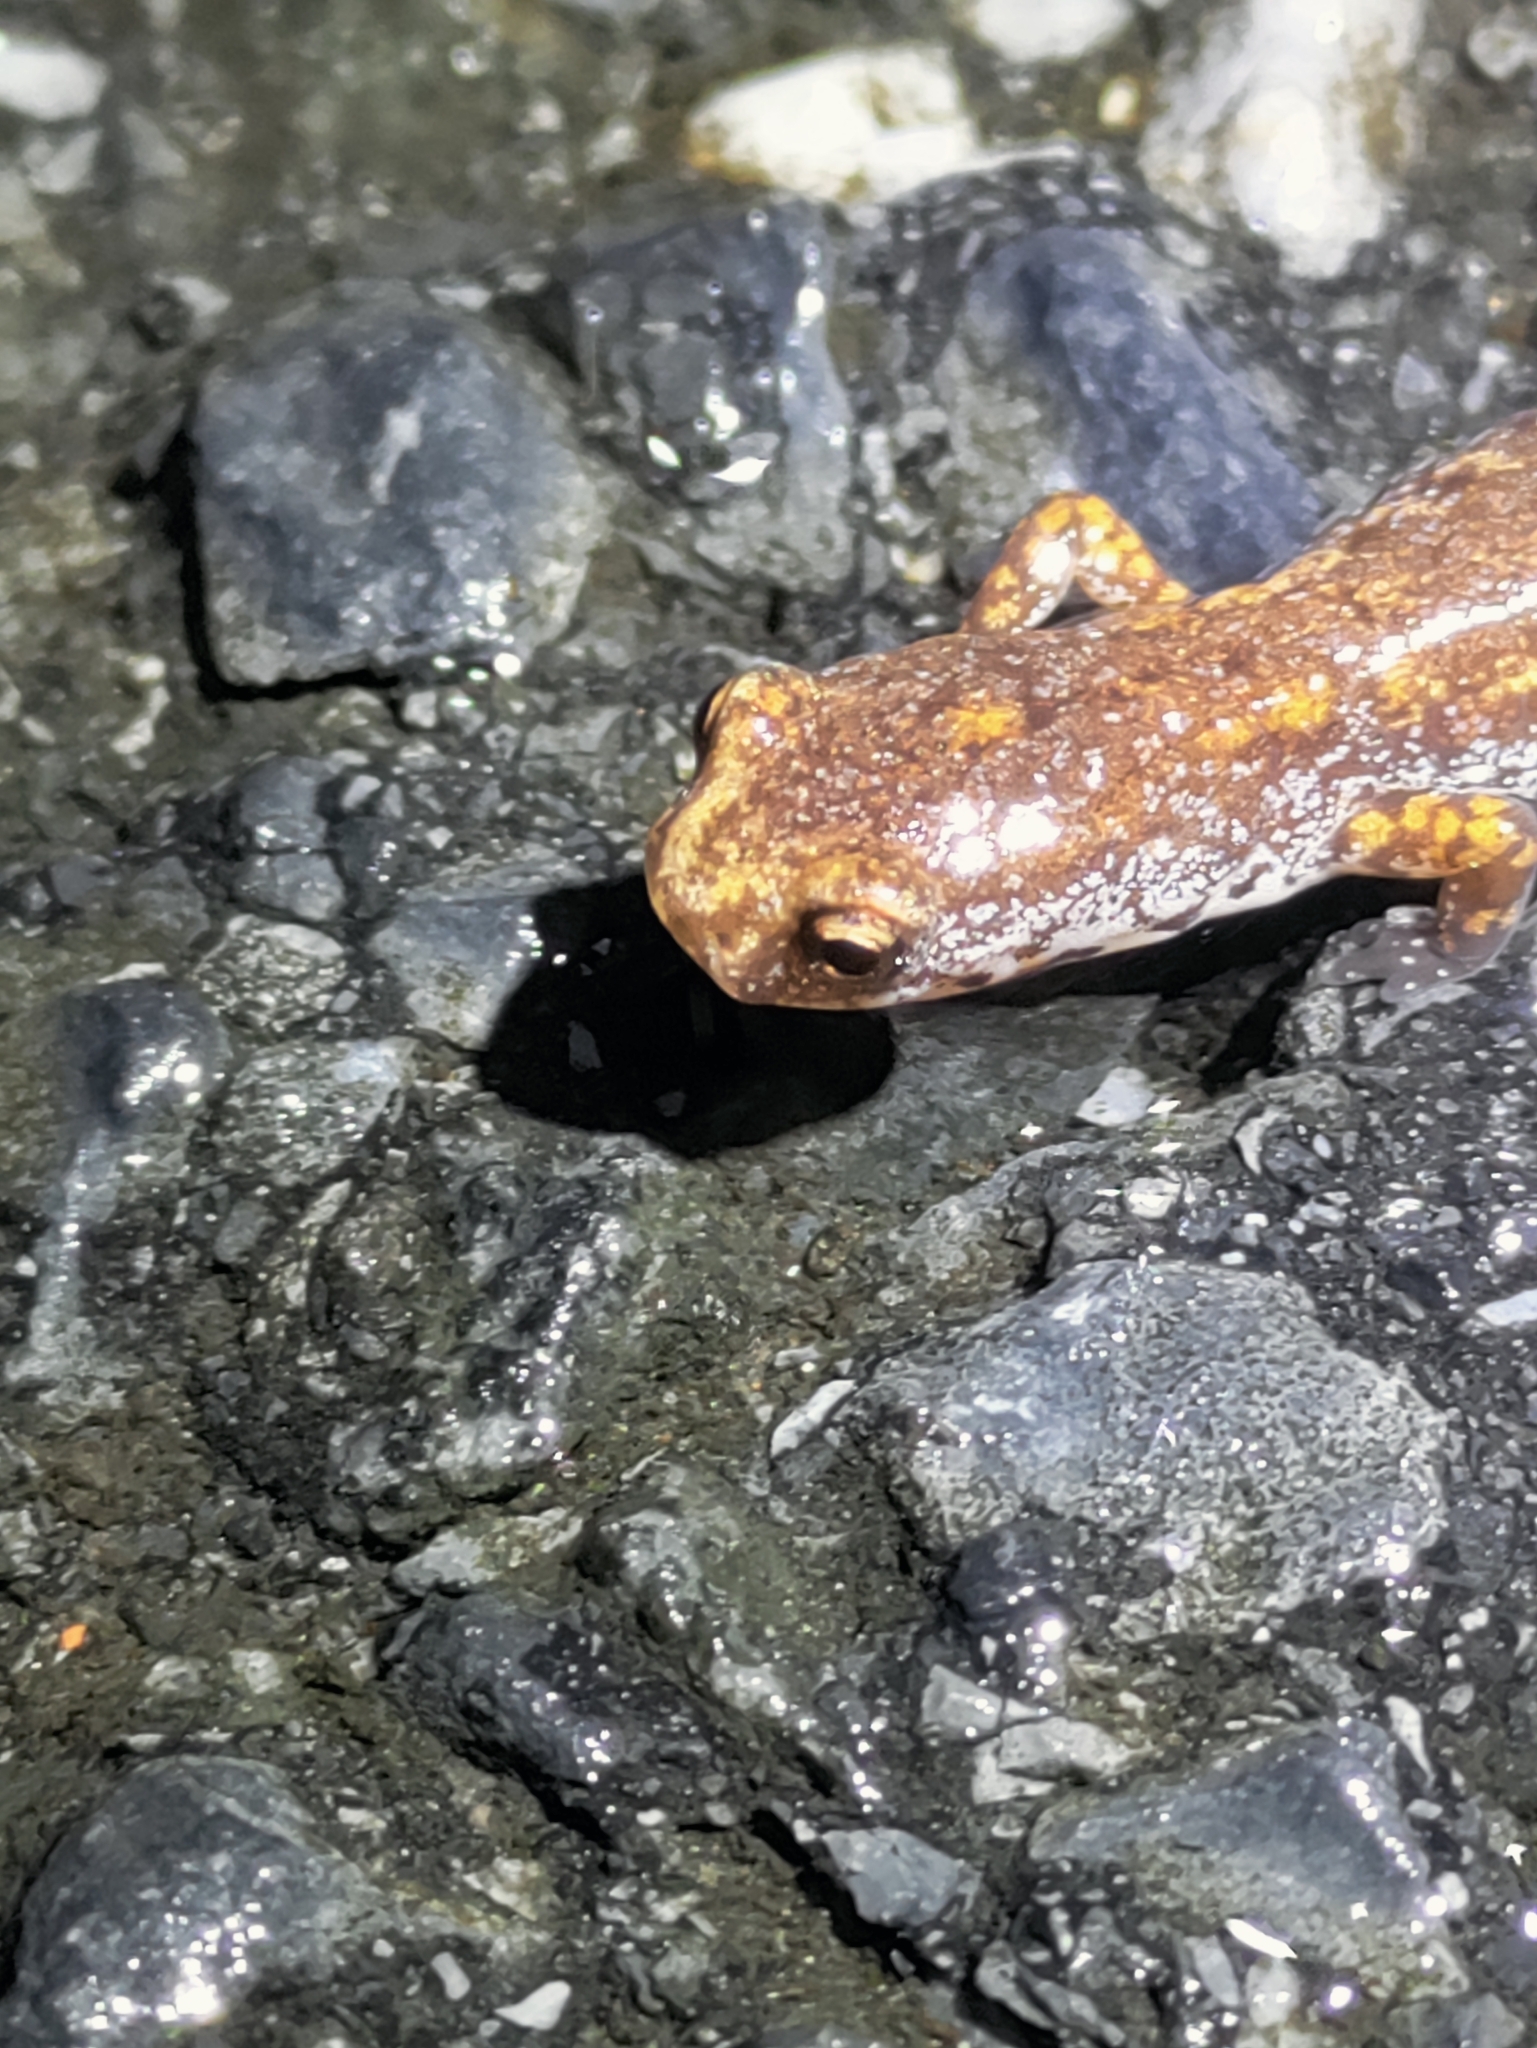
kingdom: Animalia
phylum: Chordata
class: Amphibia
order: Caudata
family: Plethodontidae
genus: Hemidactylium
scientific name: Hemidactylium scutatum
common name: Four-toed salamander
